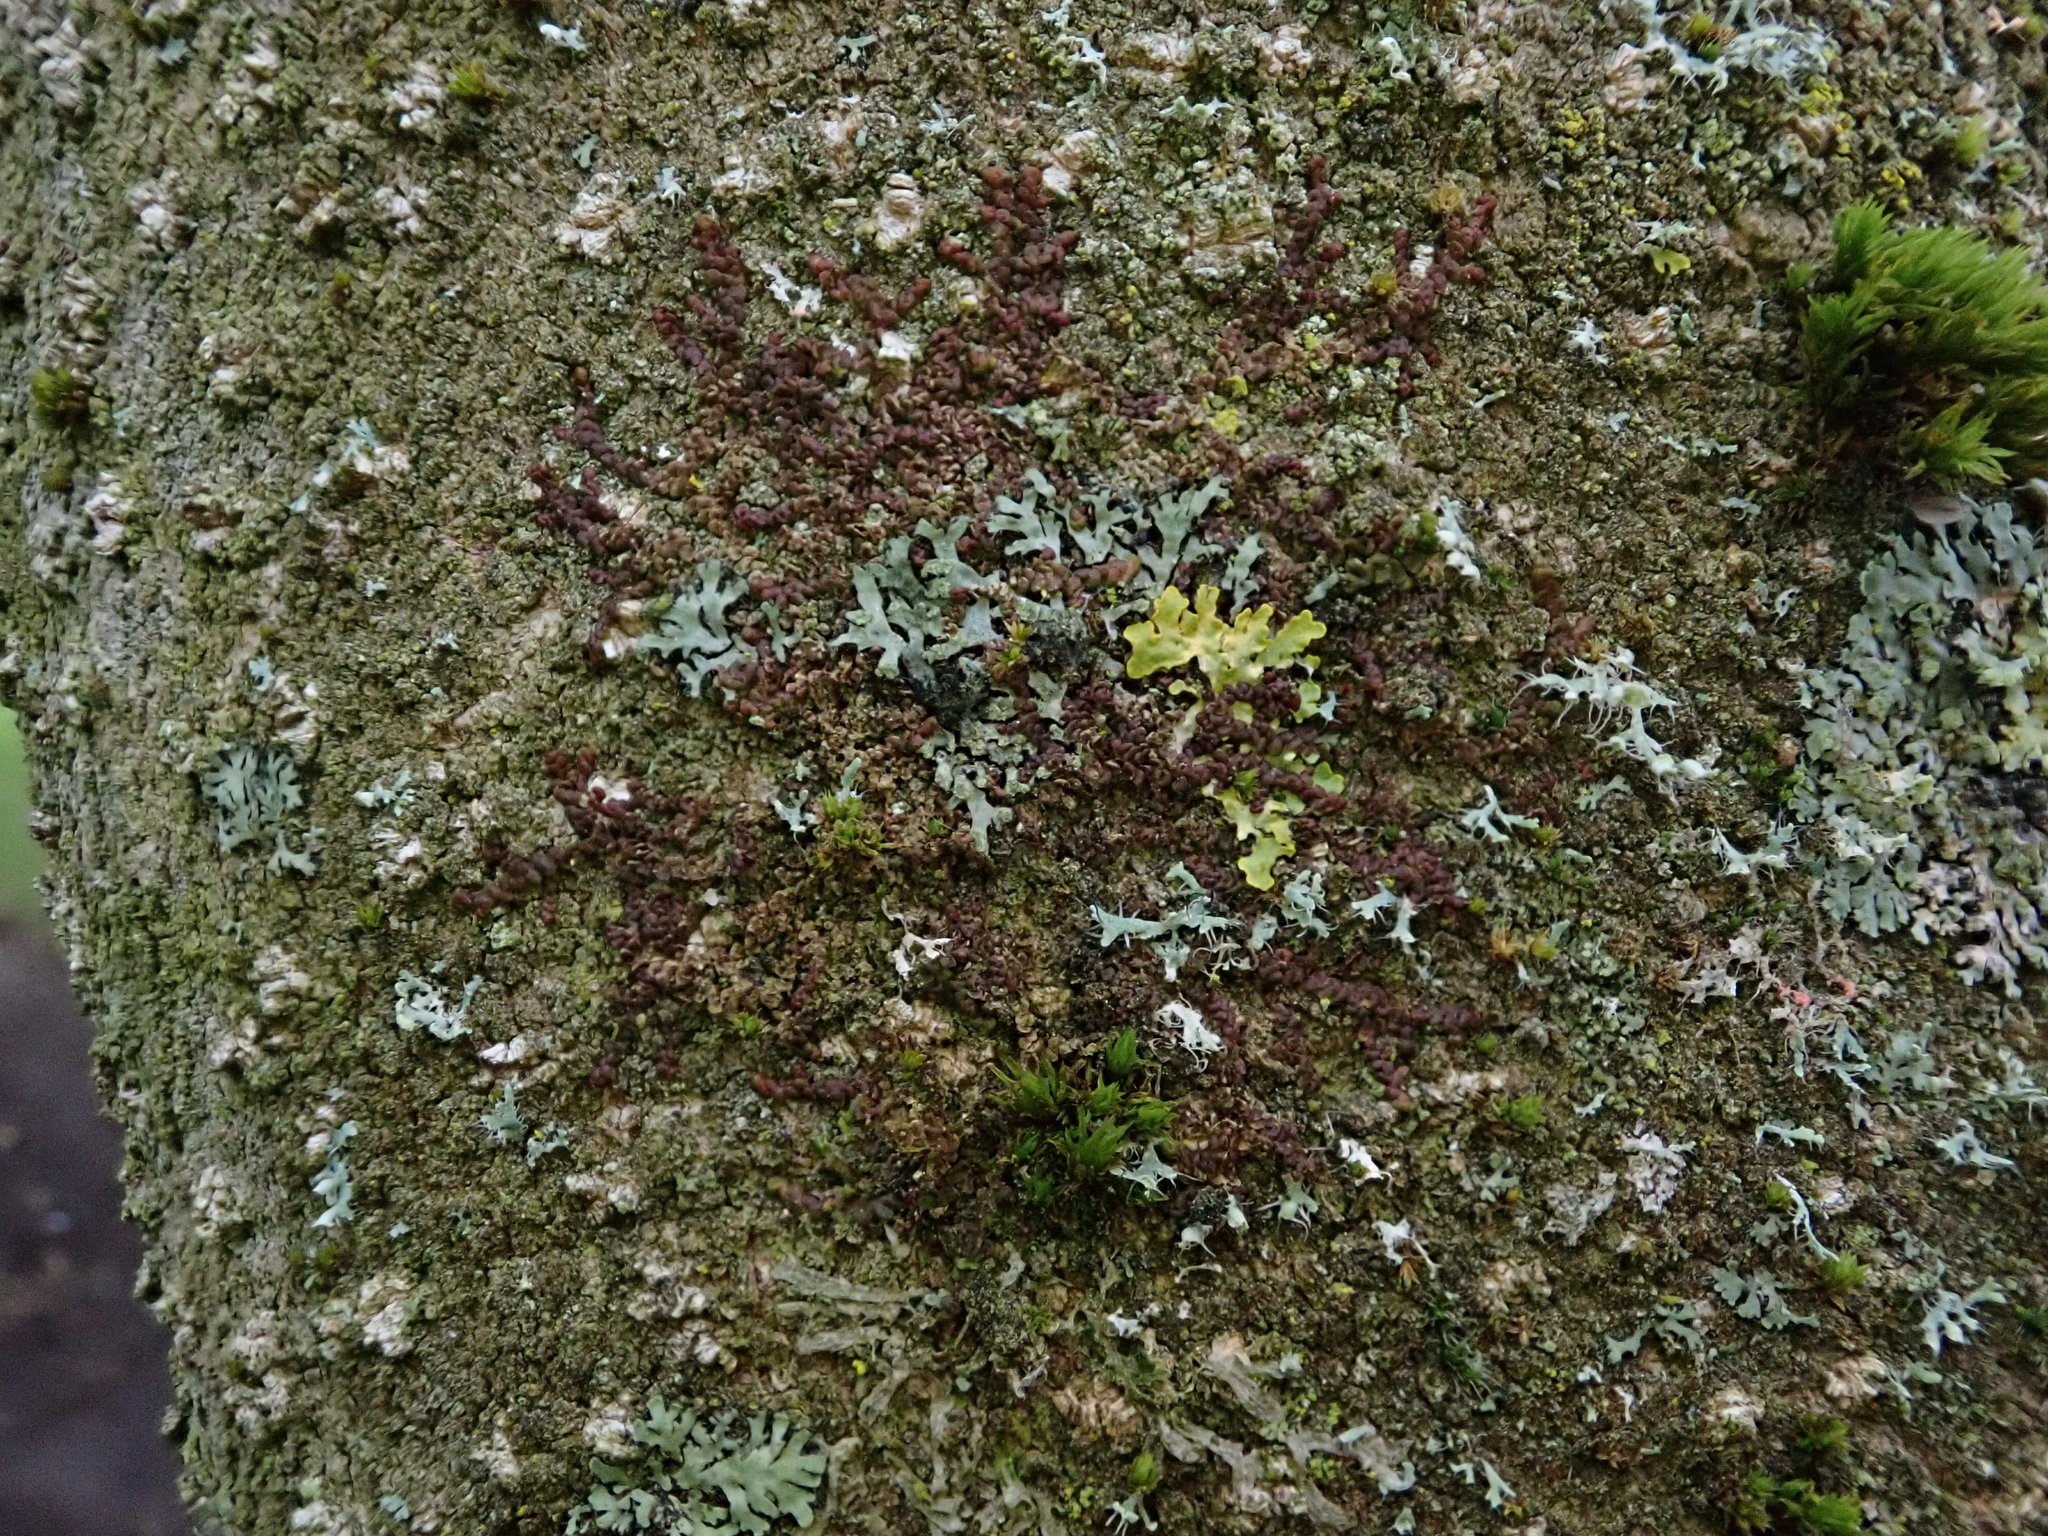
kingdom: Plantae
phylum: Marchantiophyta
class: Jungermanniopsida
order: Porellales
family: Frullaniaceae
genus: Frullania
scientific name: Frullania dilatata
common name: Dilated scalewort
